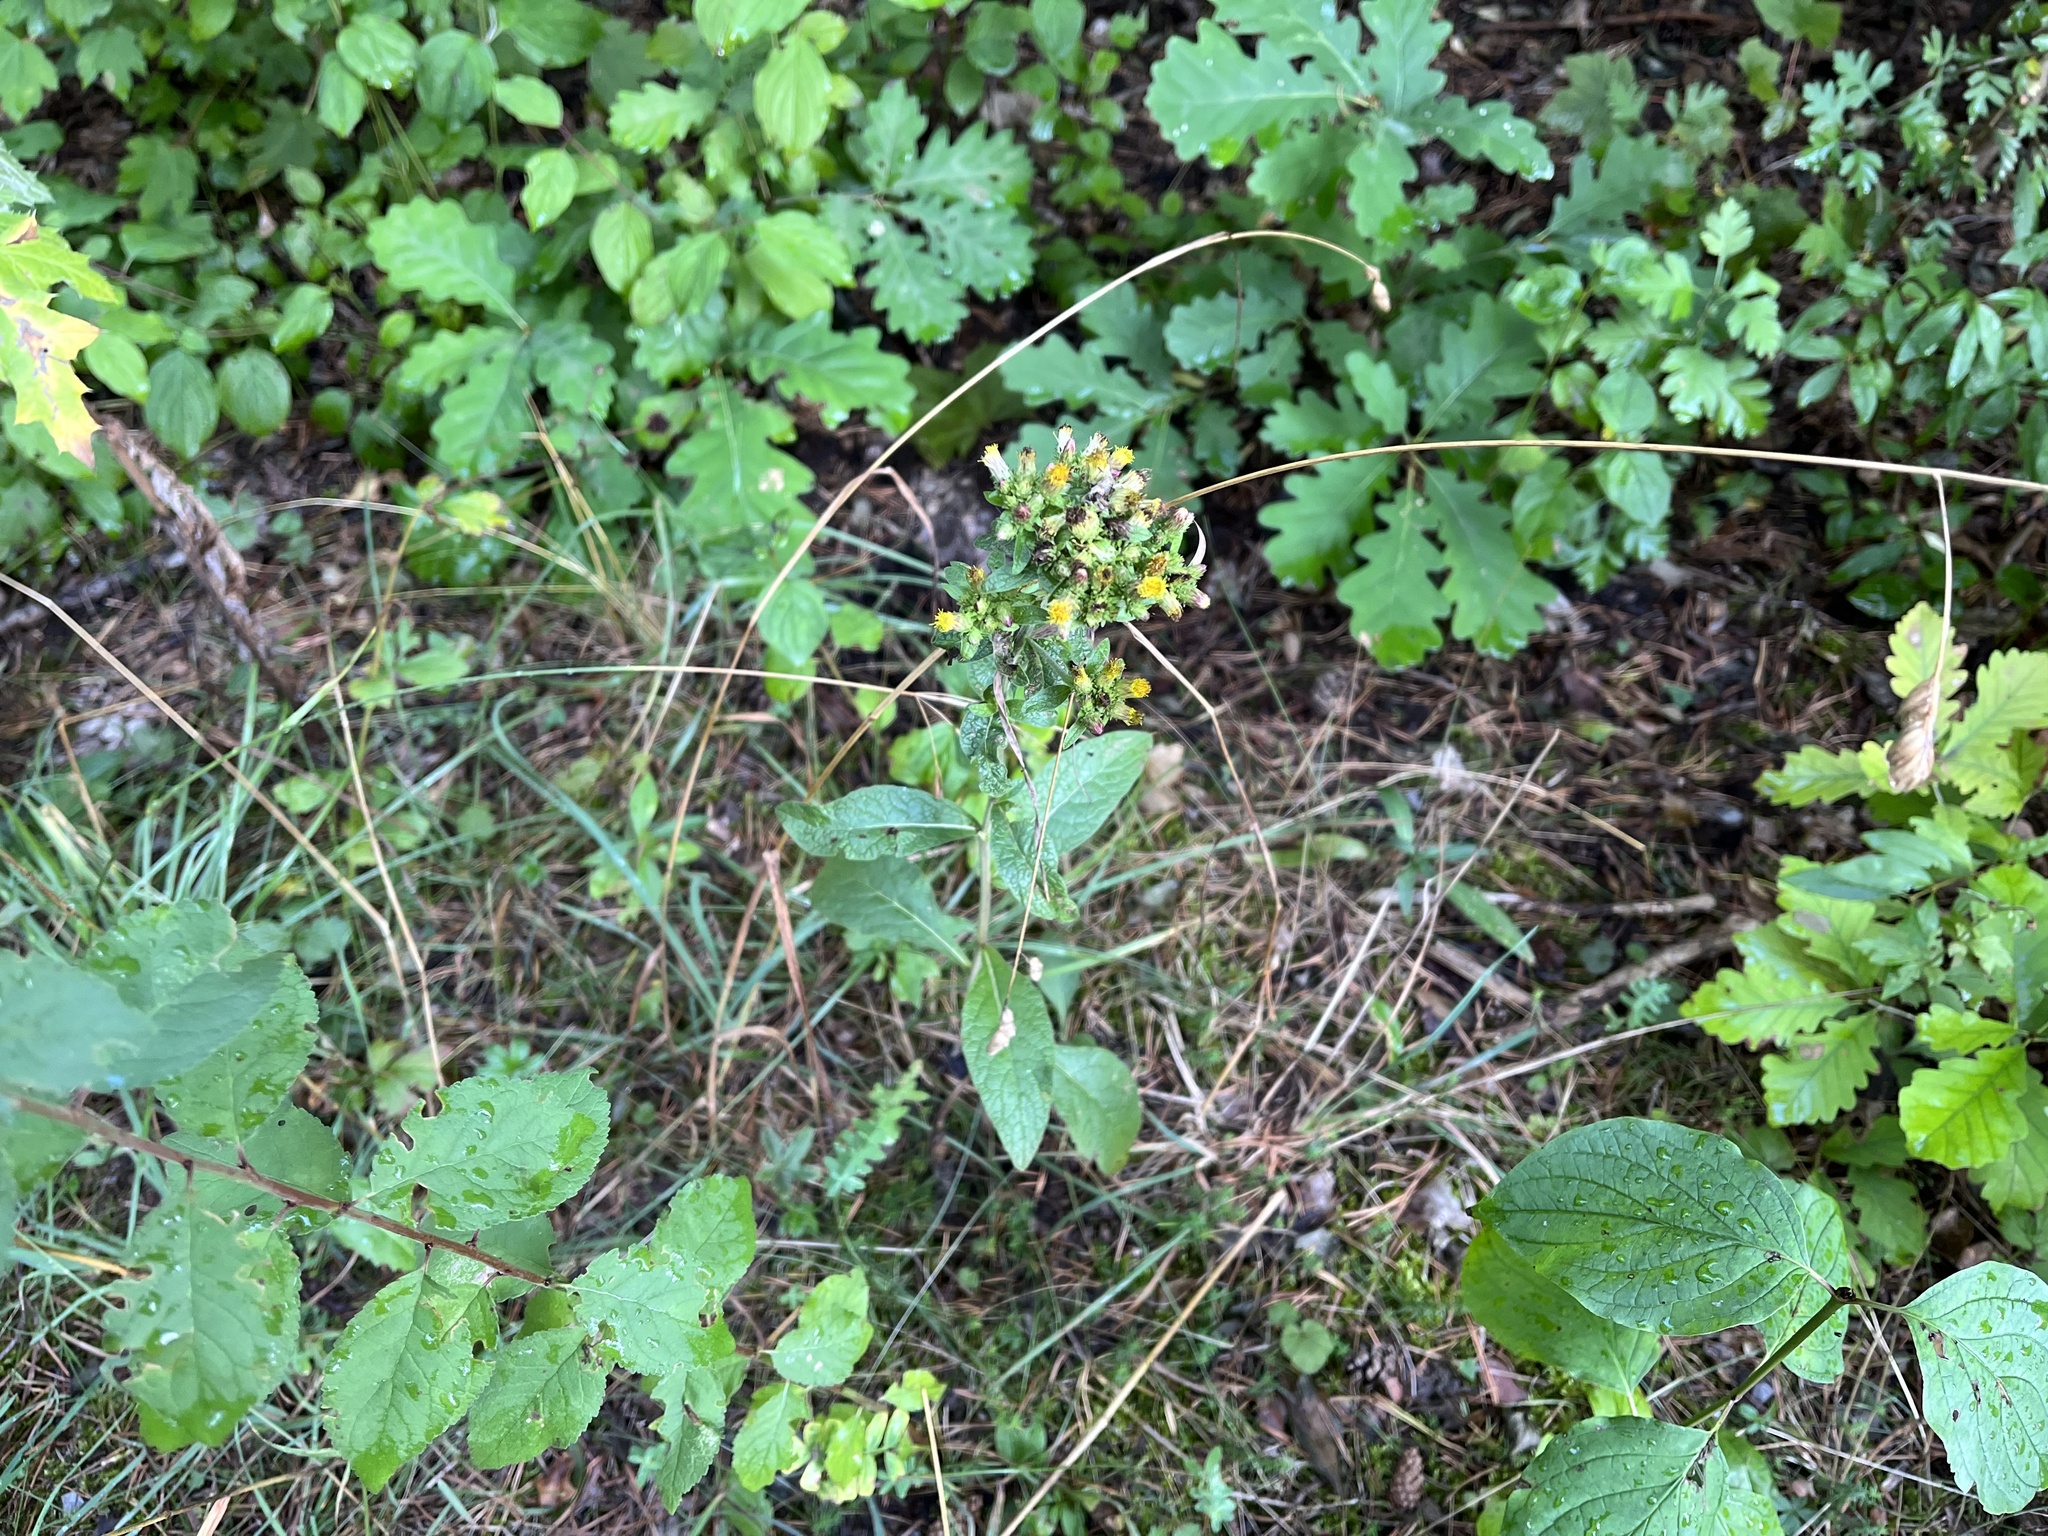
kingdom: Plantae
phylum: Tracheophyta
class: Magnoliopsida
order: Asterales
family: Asteraceae
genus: Pentanema
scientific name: Pentanema squarrosum
